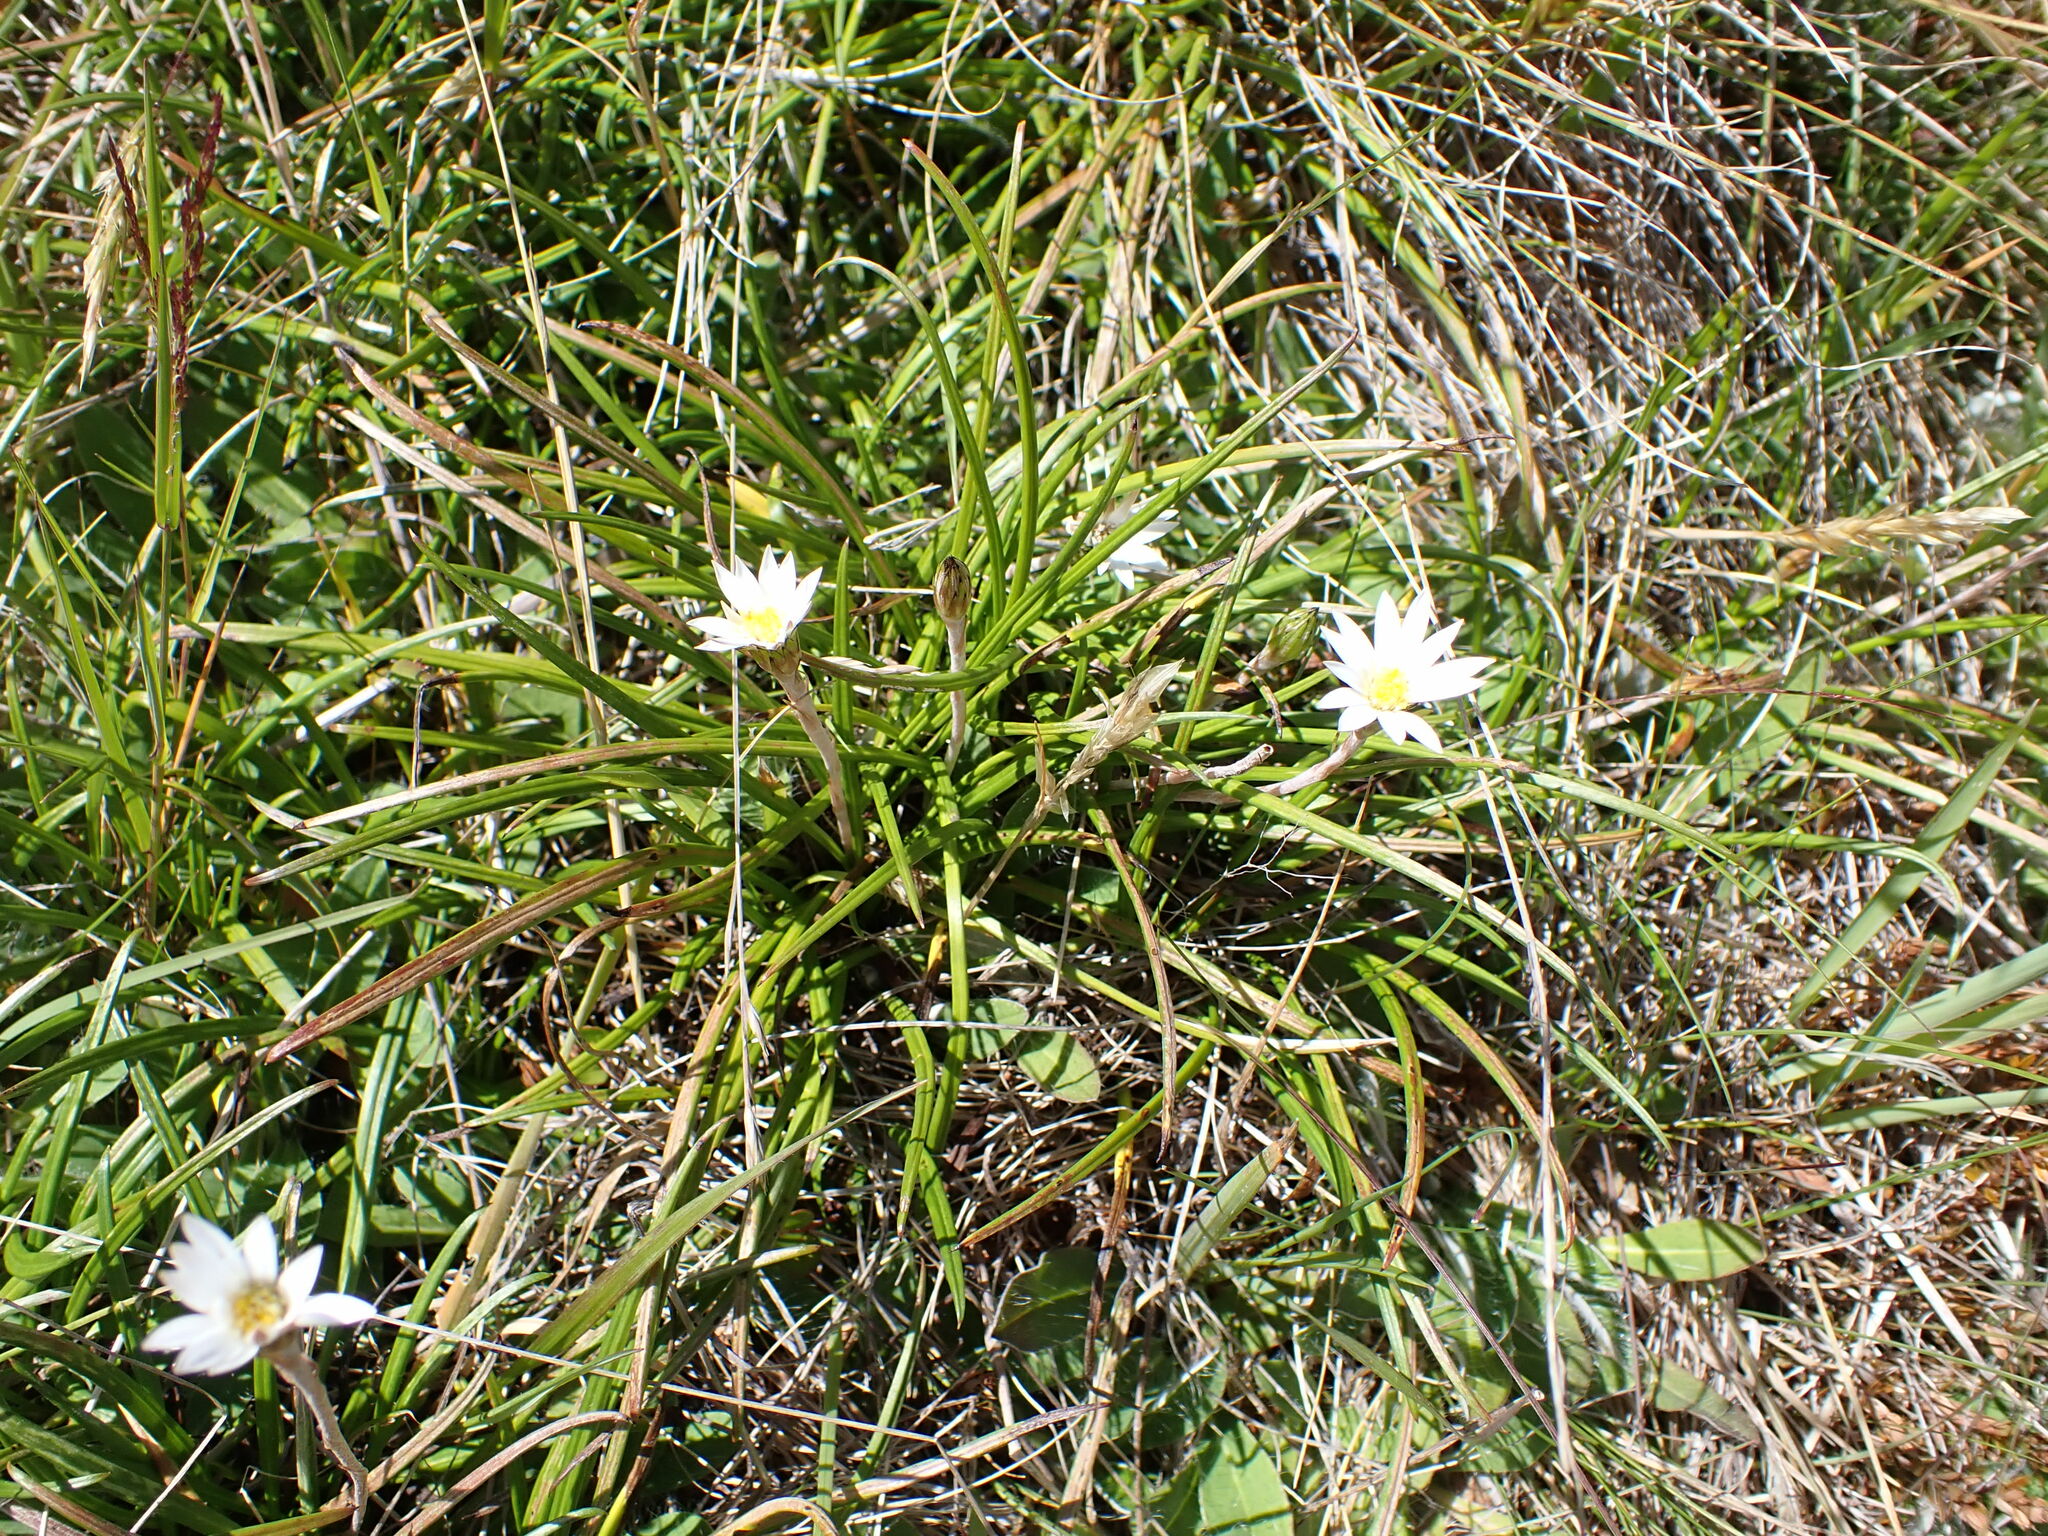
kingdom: Plantae
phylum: Tracheophyta
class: Magnoliopsida
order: Asterales
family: Asteraceae
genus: Celmisia
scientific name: Celmisia gracilenta
